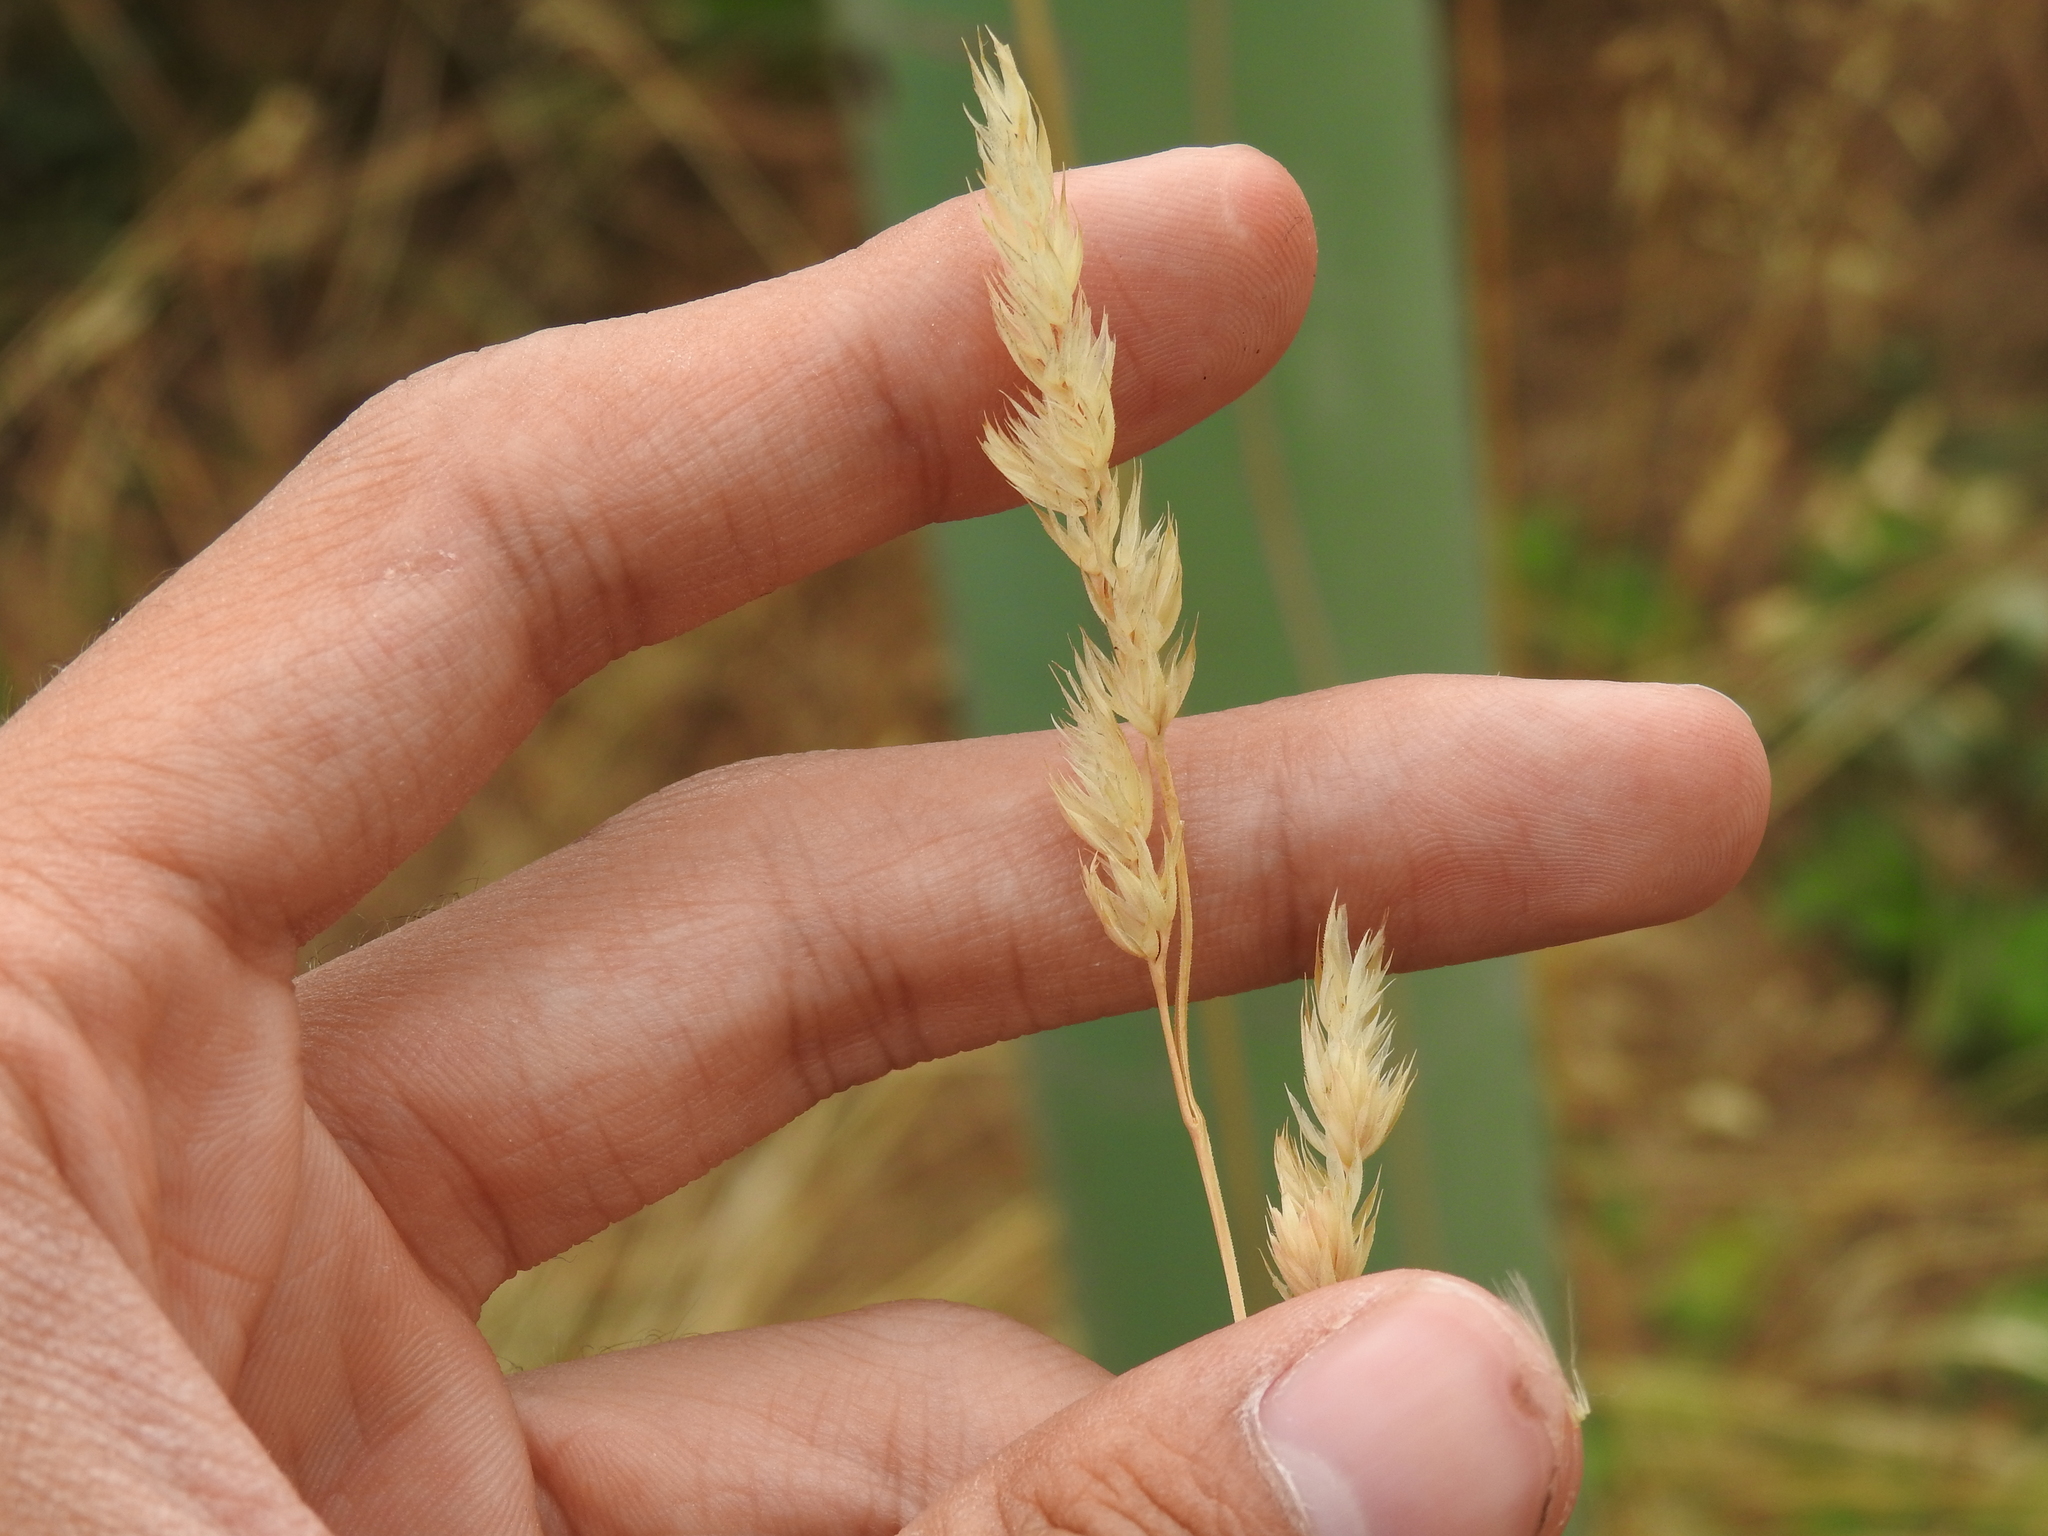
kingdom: Plantae
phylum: Tracheophyta
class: Liliopsida
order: Poales
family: Poaceae
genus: Dactylis
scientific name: Dactylis glomerata
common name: Orchardgrass
